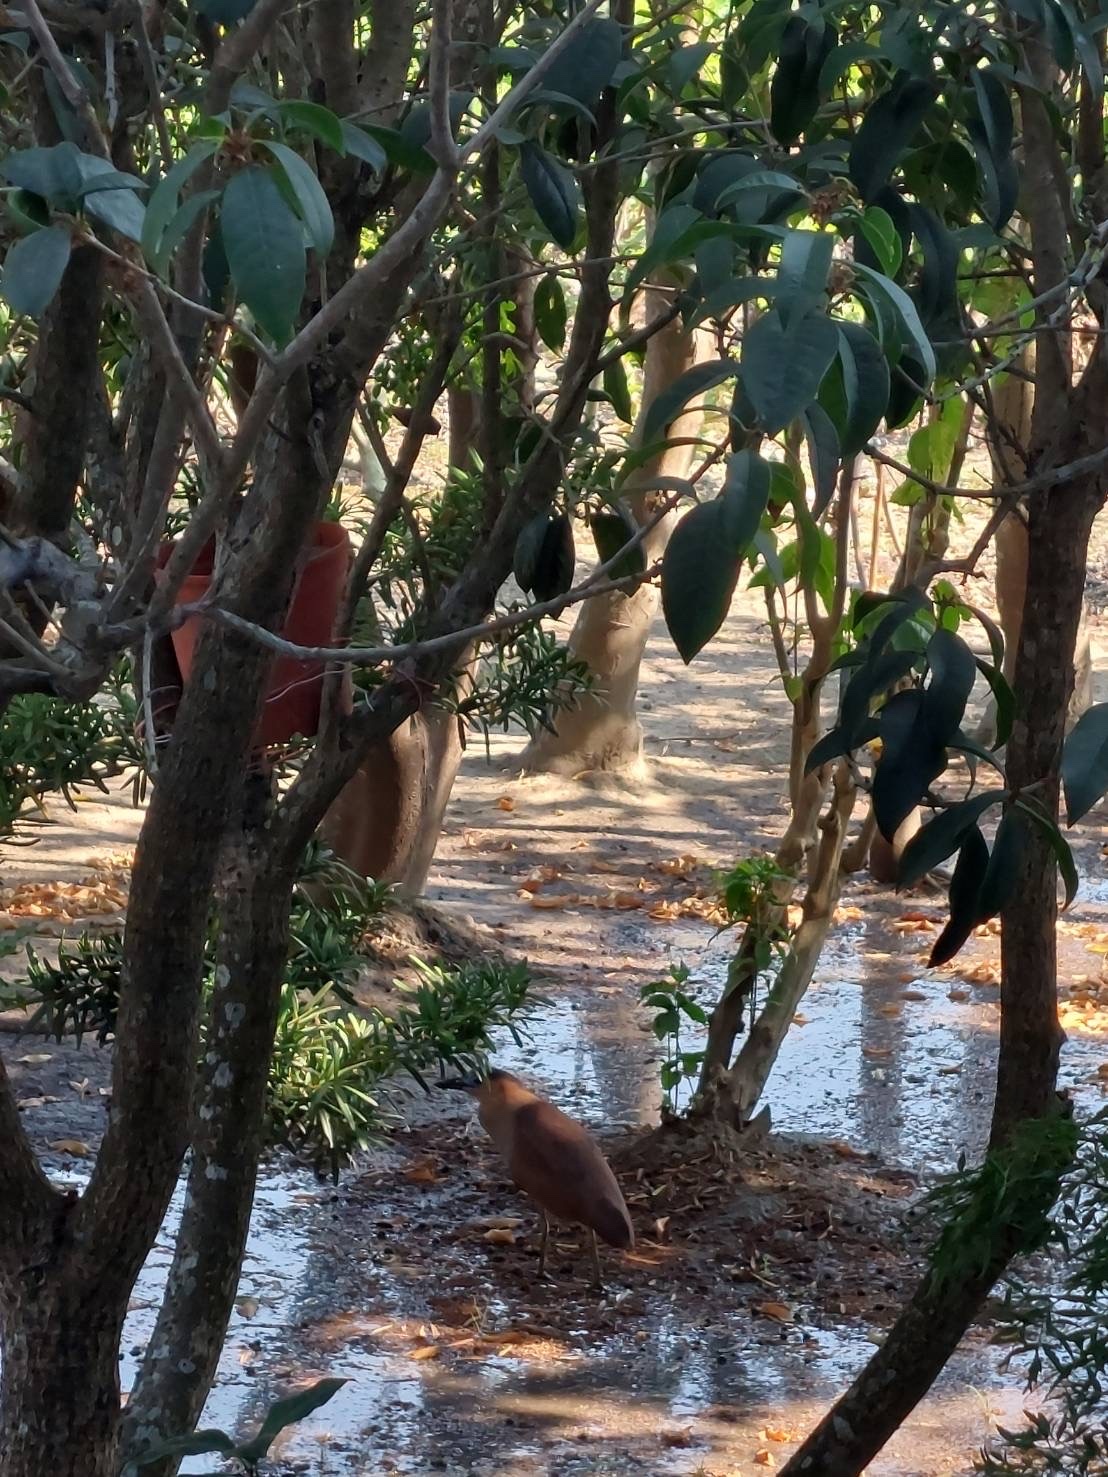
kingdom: Animalia
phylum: Chordata
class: Aves
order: Pelecaniformes
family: Ardeidae
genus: Gorsachius
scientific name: Gorsachius melanolophus
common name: Malayan night heron
